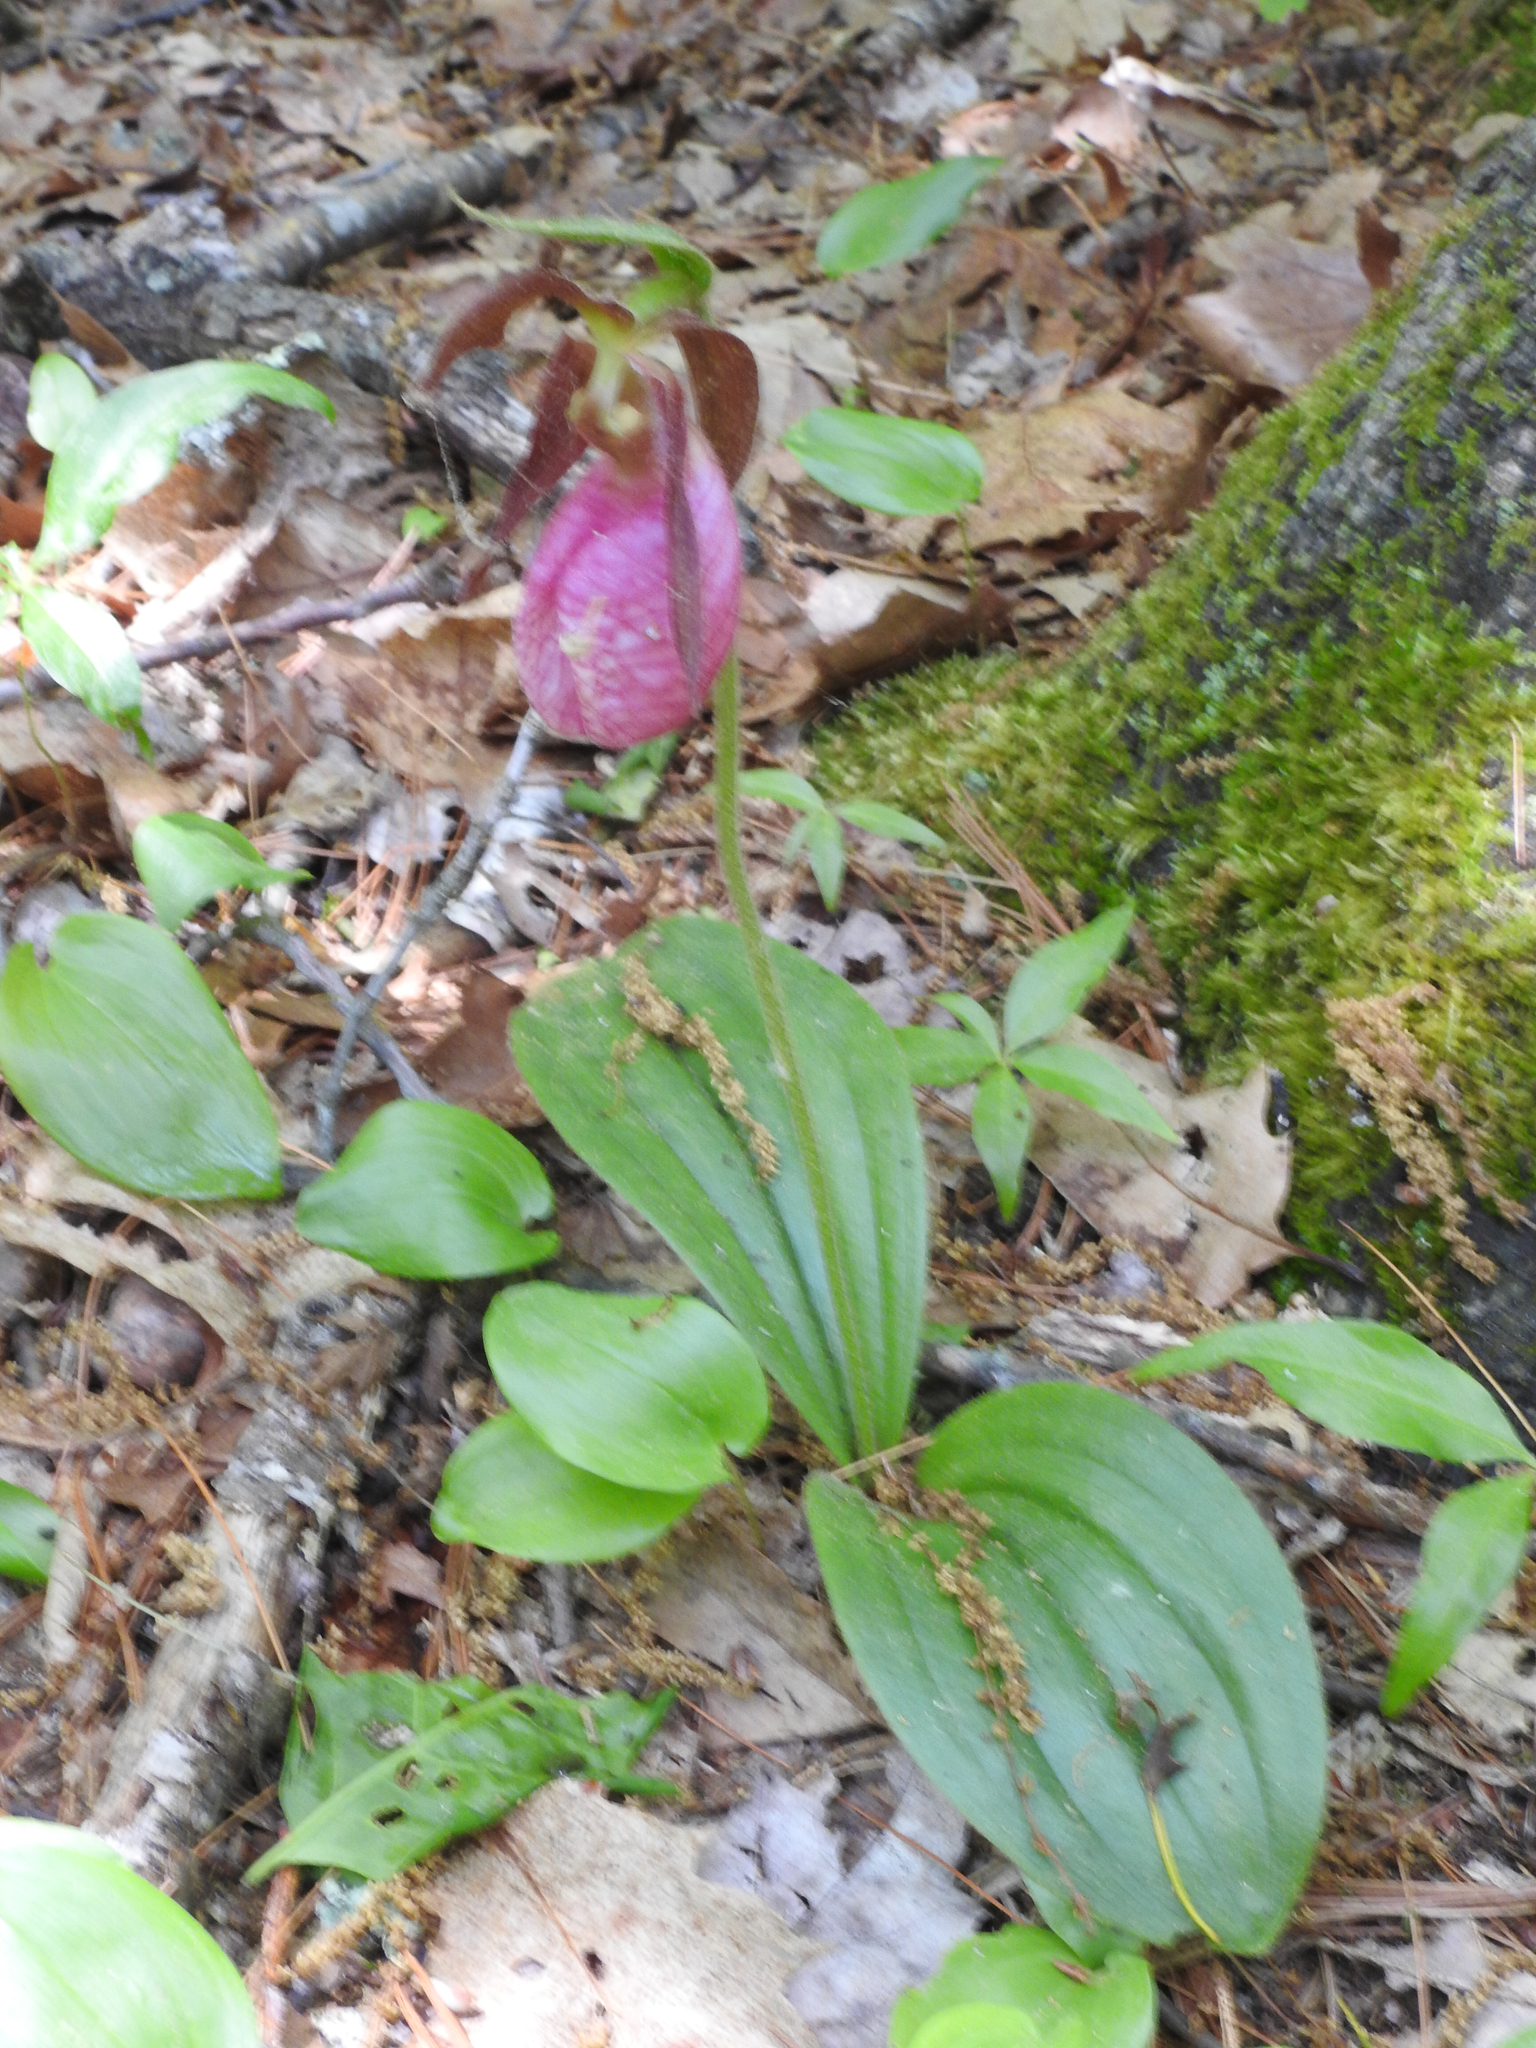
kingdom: Plantae
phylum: Tracheophyta
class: Liliopsida
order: Asparagales
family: Orchidaceae
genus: Cypripedium
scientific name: Cypripedium acaule
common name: Pink lady's-slipper
